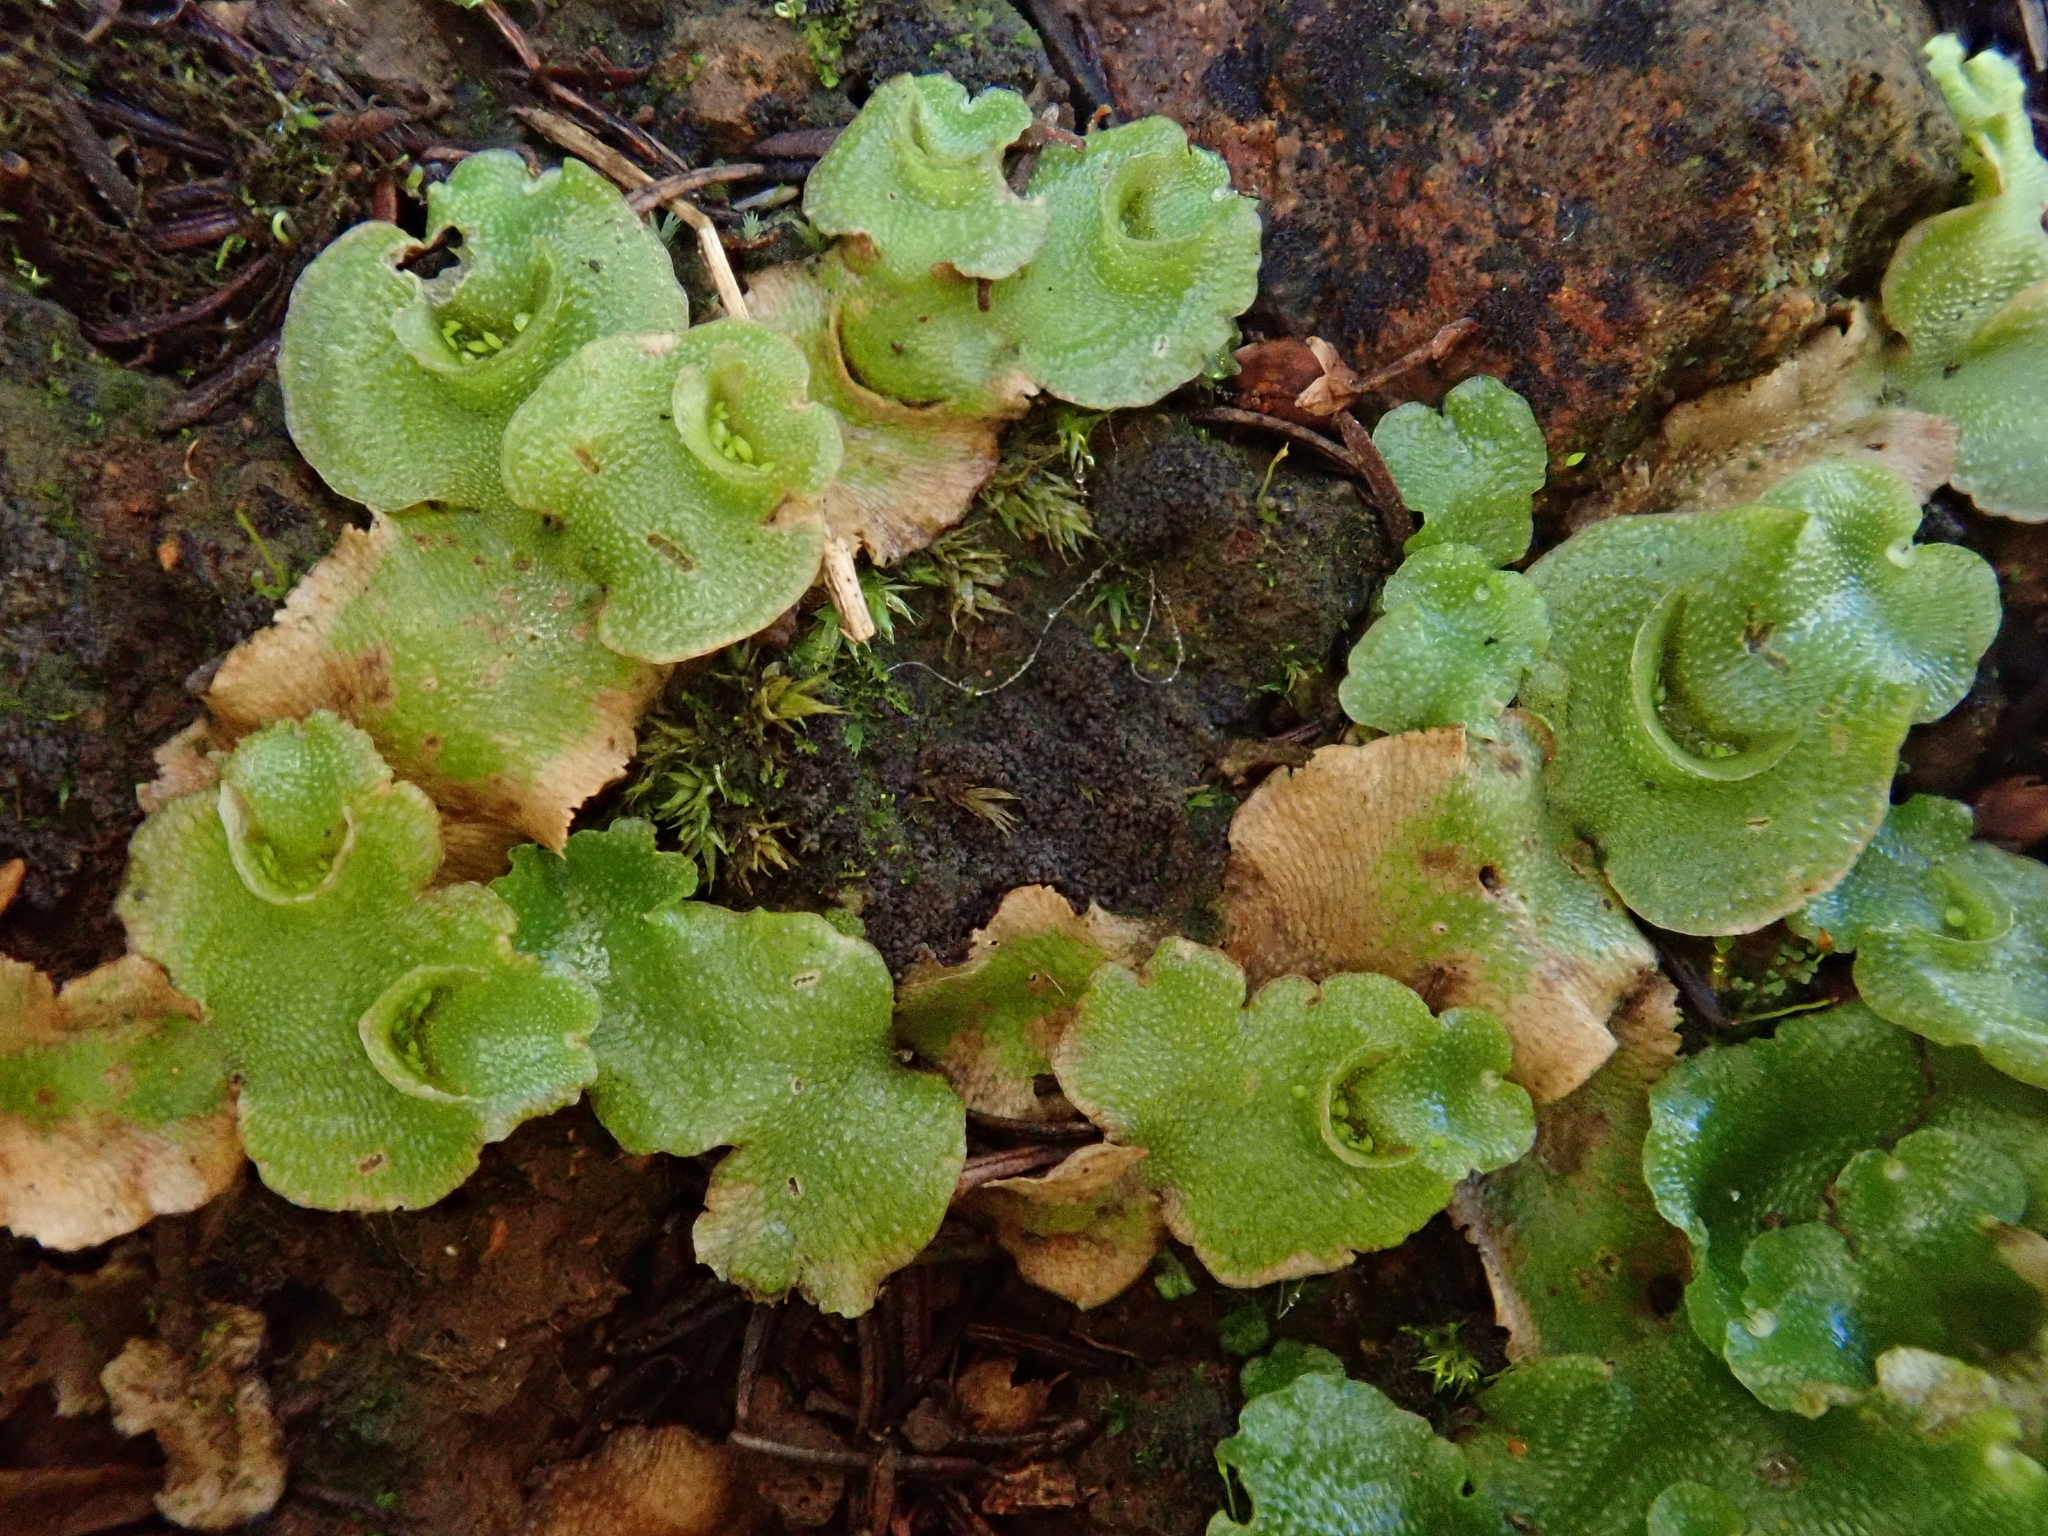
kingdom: Plantae
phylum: Marchantiophyta
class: Marchantiopsida
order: Lunulariales
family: Lunulariaceae
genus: Lunularia
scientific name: Lunularia cruciata
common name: Crescent-cup liverwort
